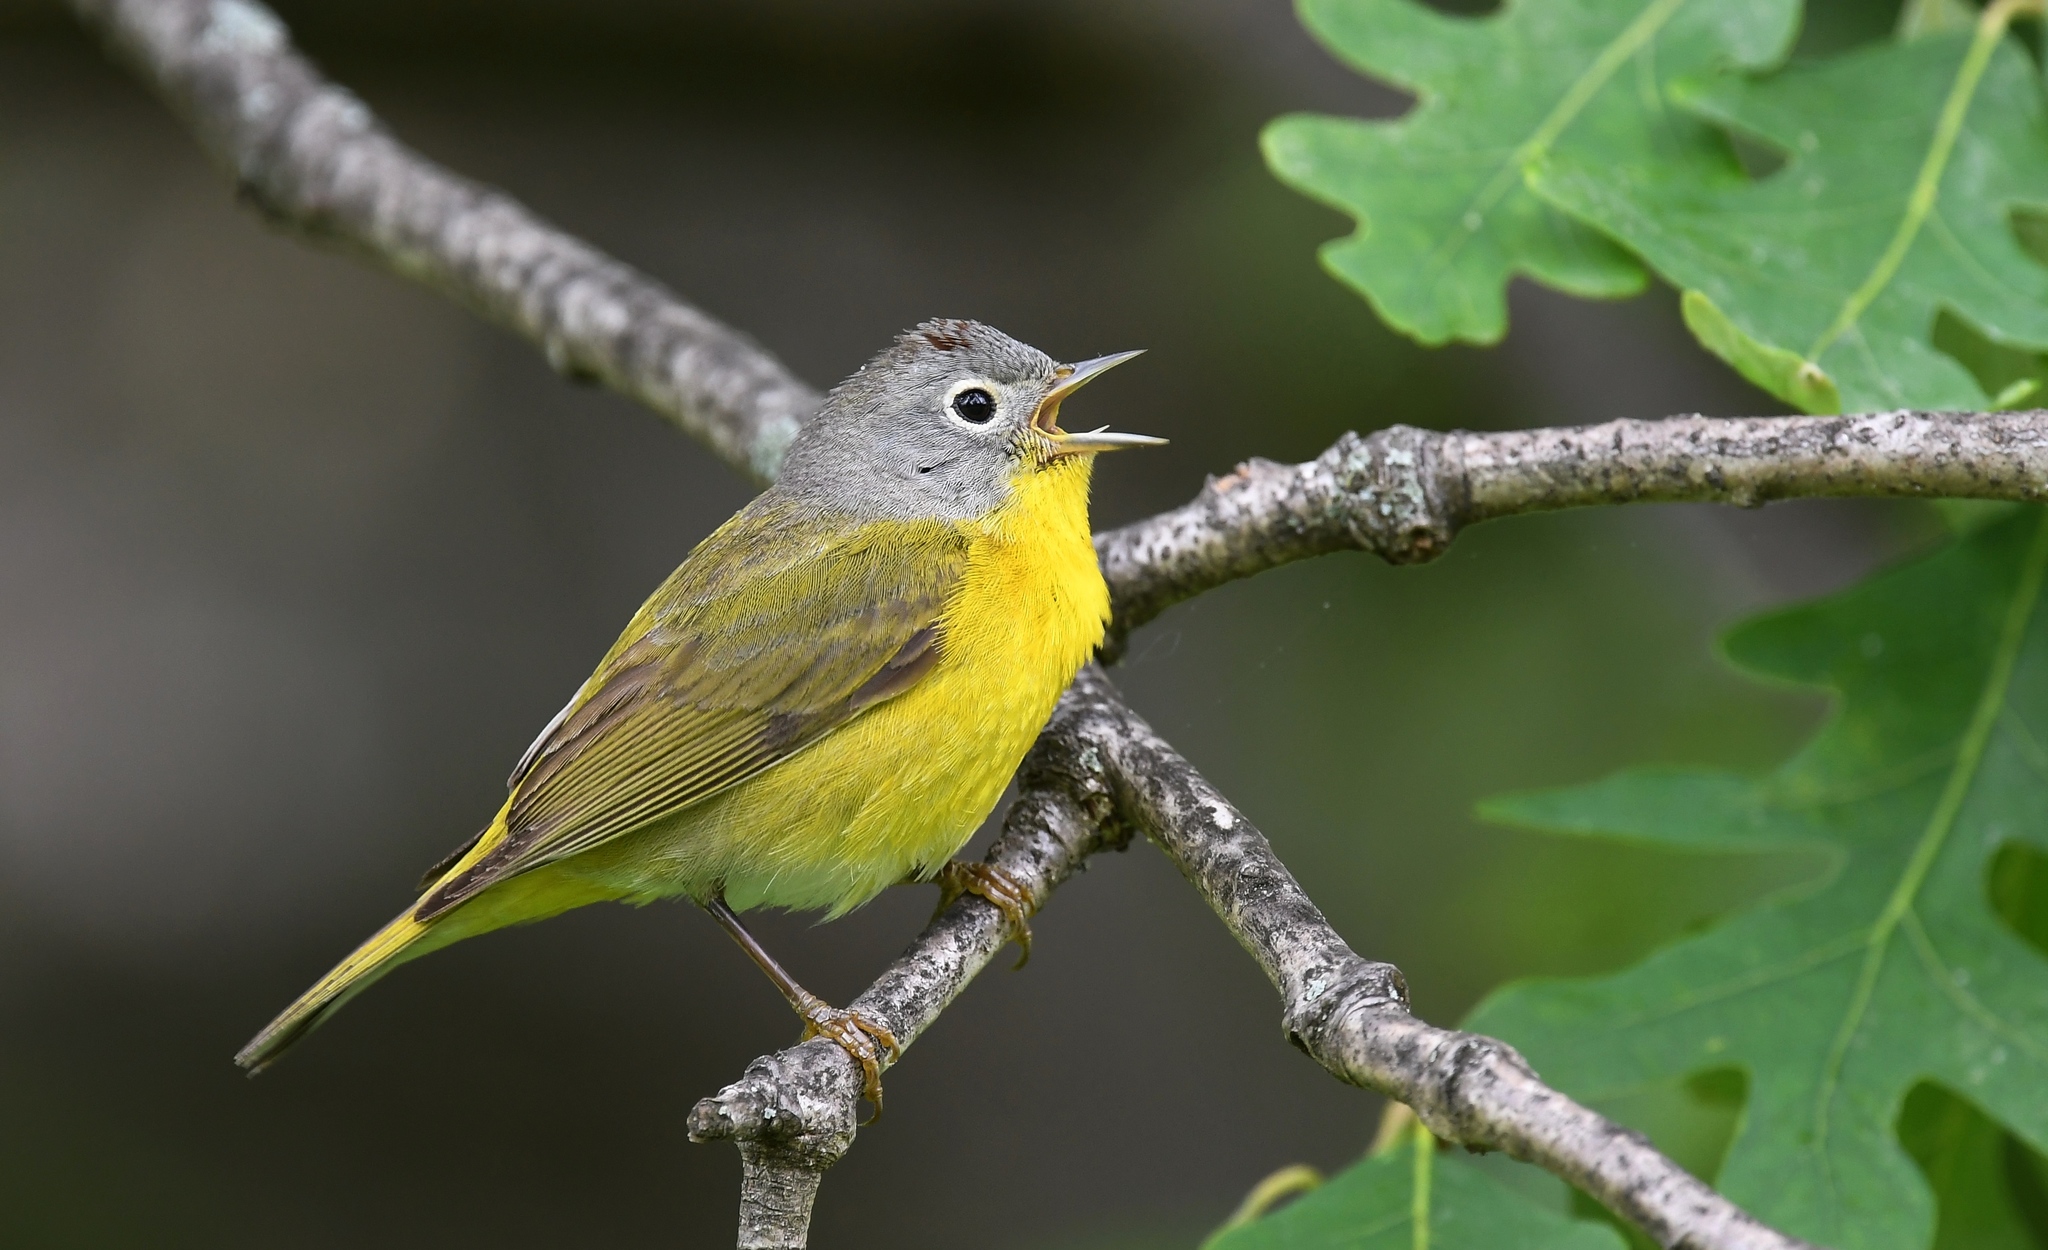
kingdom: Animalia
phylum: Chordata
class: Aves
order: Passeriformes
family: Parulidae
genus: Leiothlypis
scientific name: Leiothlypis ruficapilla
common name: Nashville warbler
